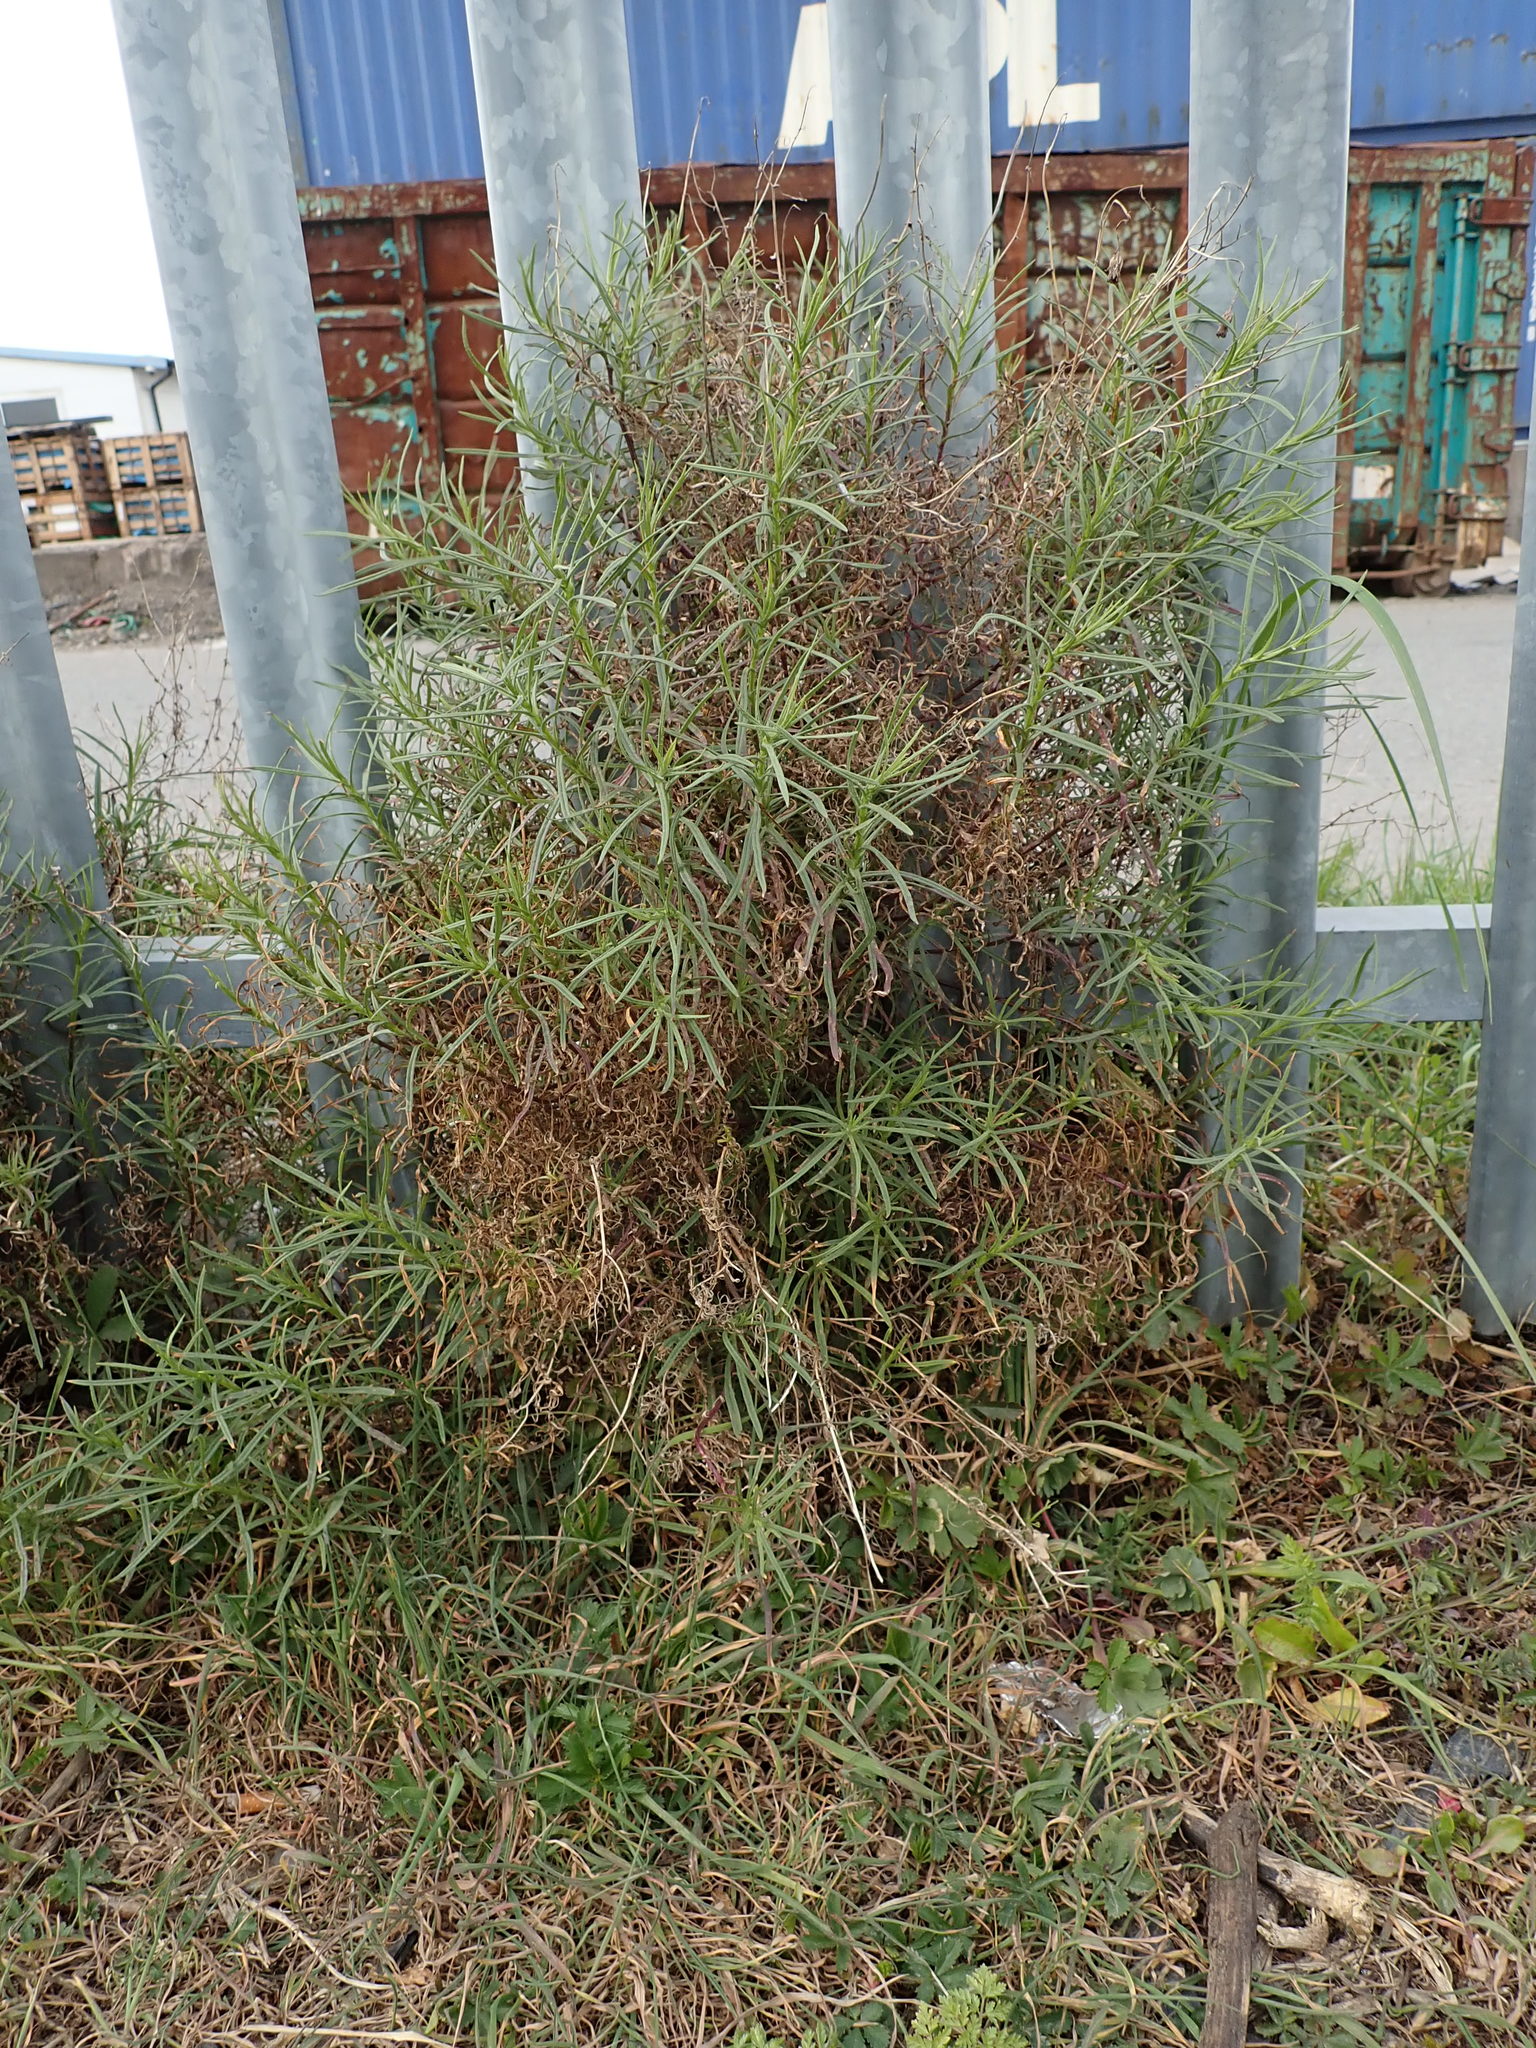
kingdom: Plantae
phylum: Tracheophyta
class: Magnoliopsida
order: Asterales
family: Asteraceae
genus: Senecio
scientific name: Senecio inaequidens
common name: Narrow-leaved ragwort
